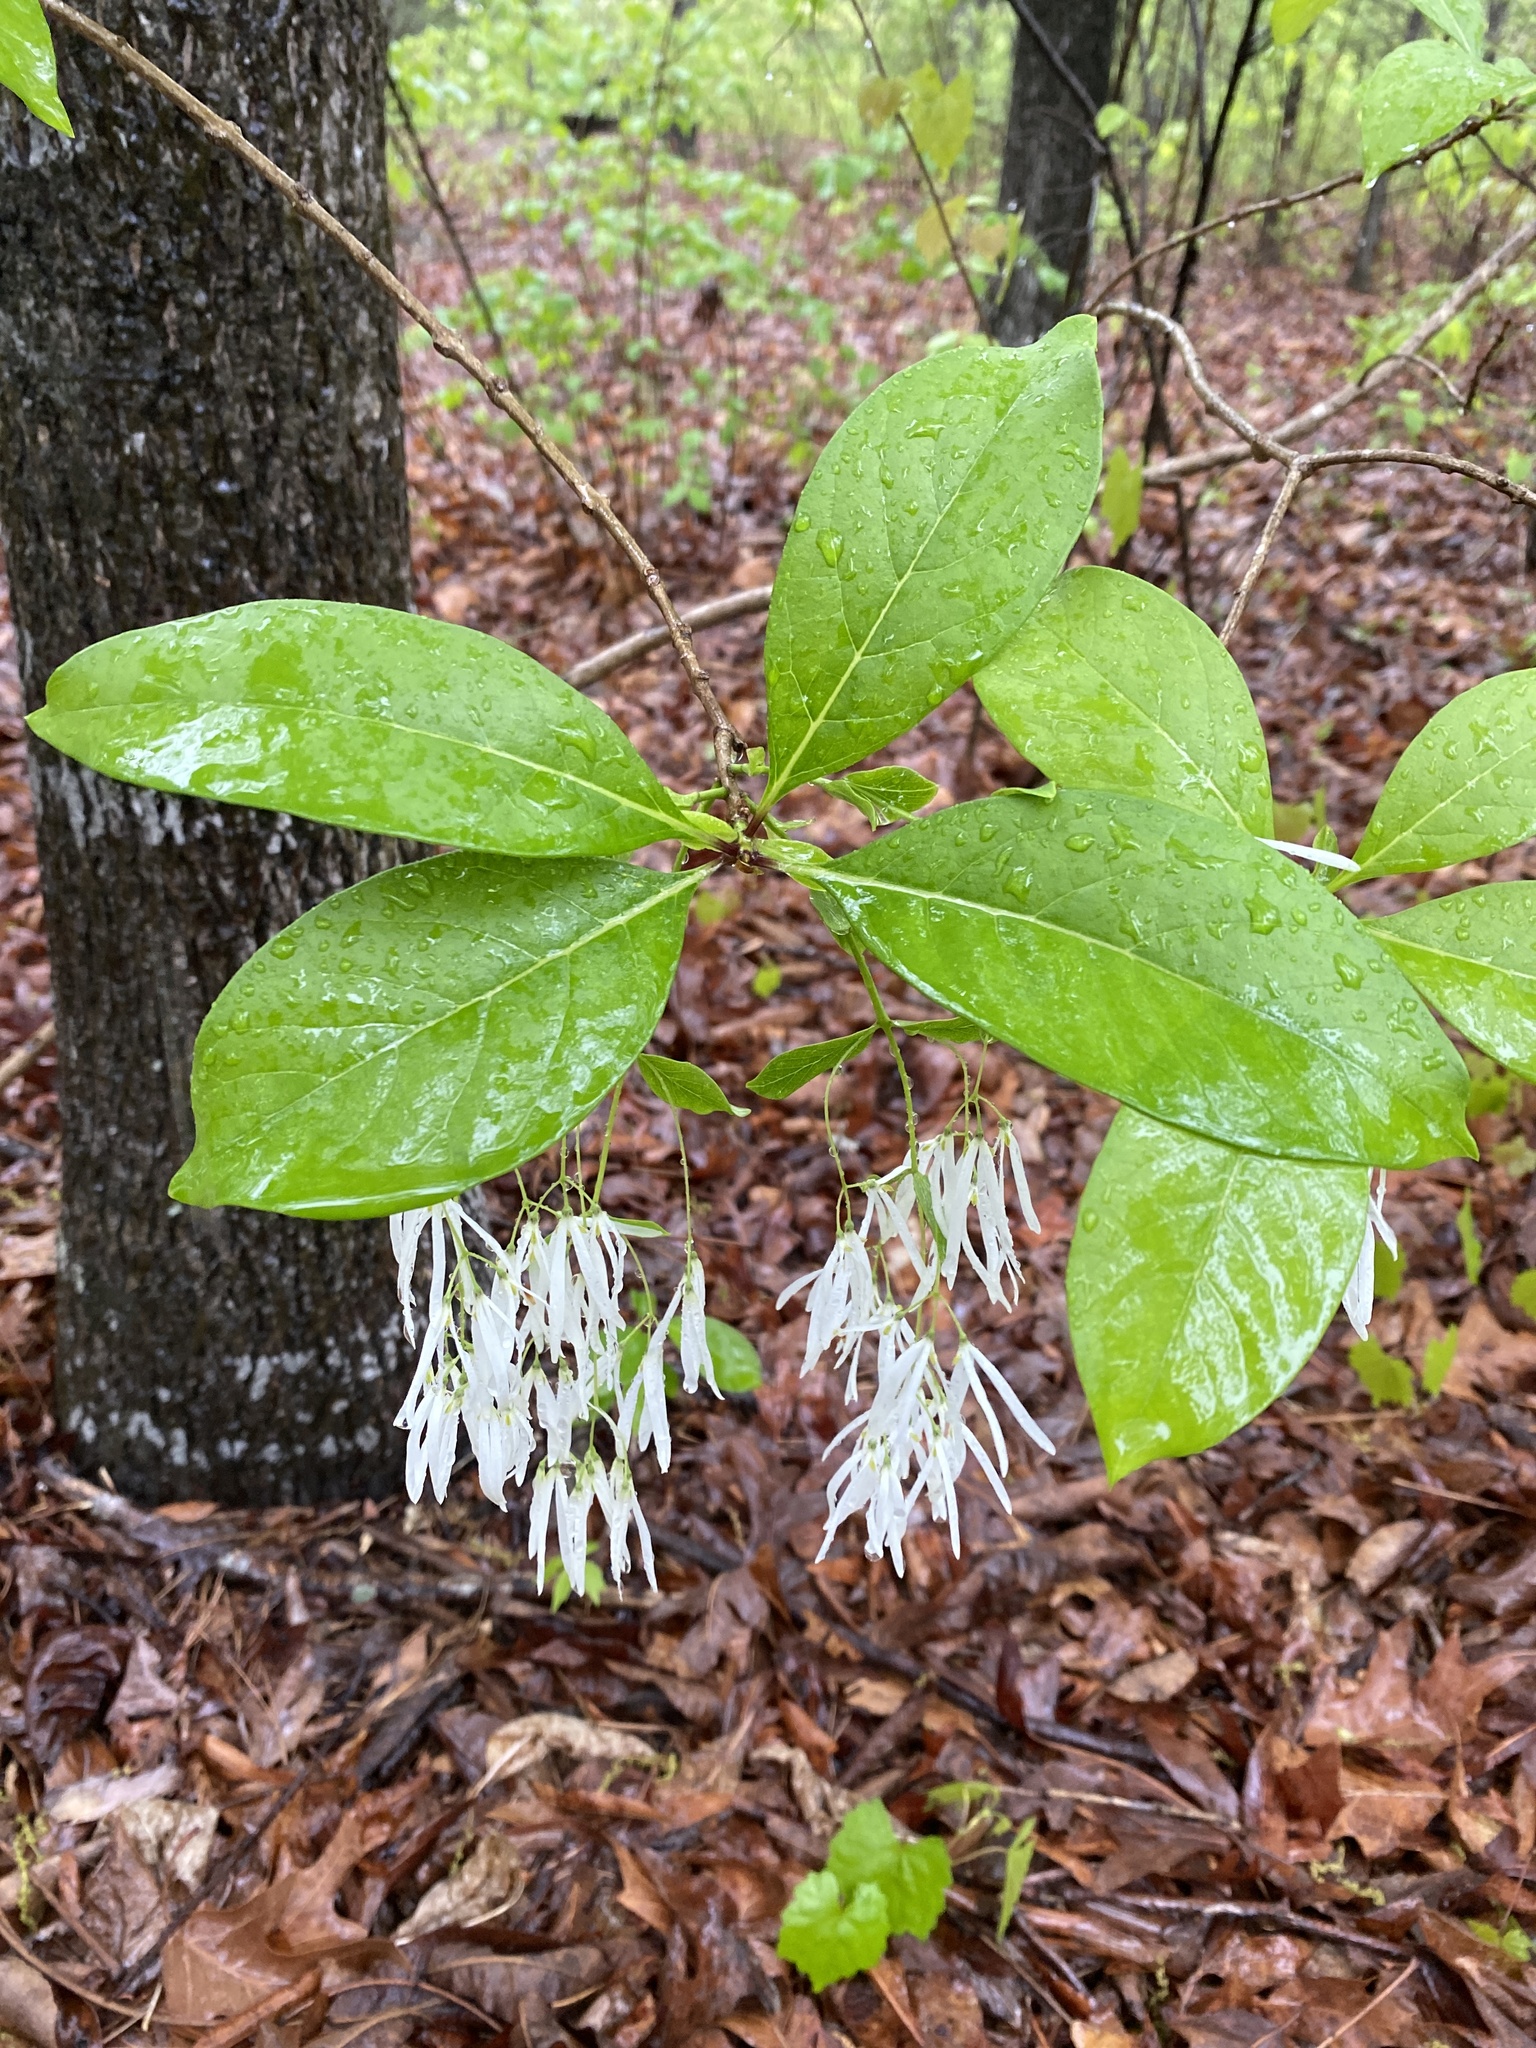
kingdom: Plantae
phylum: Tracheophyta
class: Magnoliopsida
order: Lamiales
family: Oleaceae
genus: Chionanthus
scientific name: Chionanthus virginicus
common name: American fringetree
